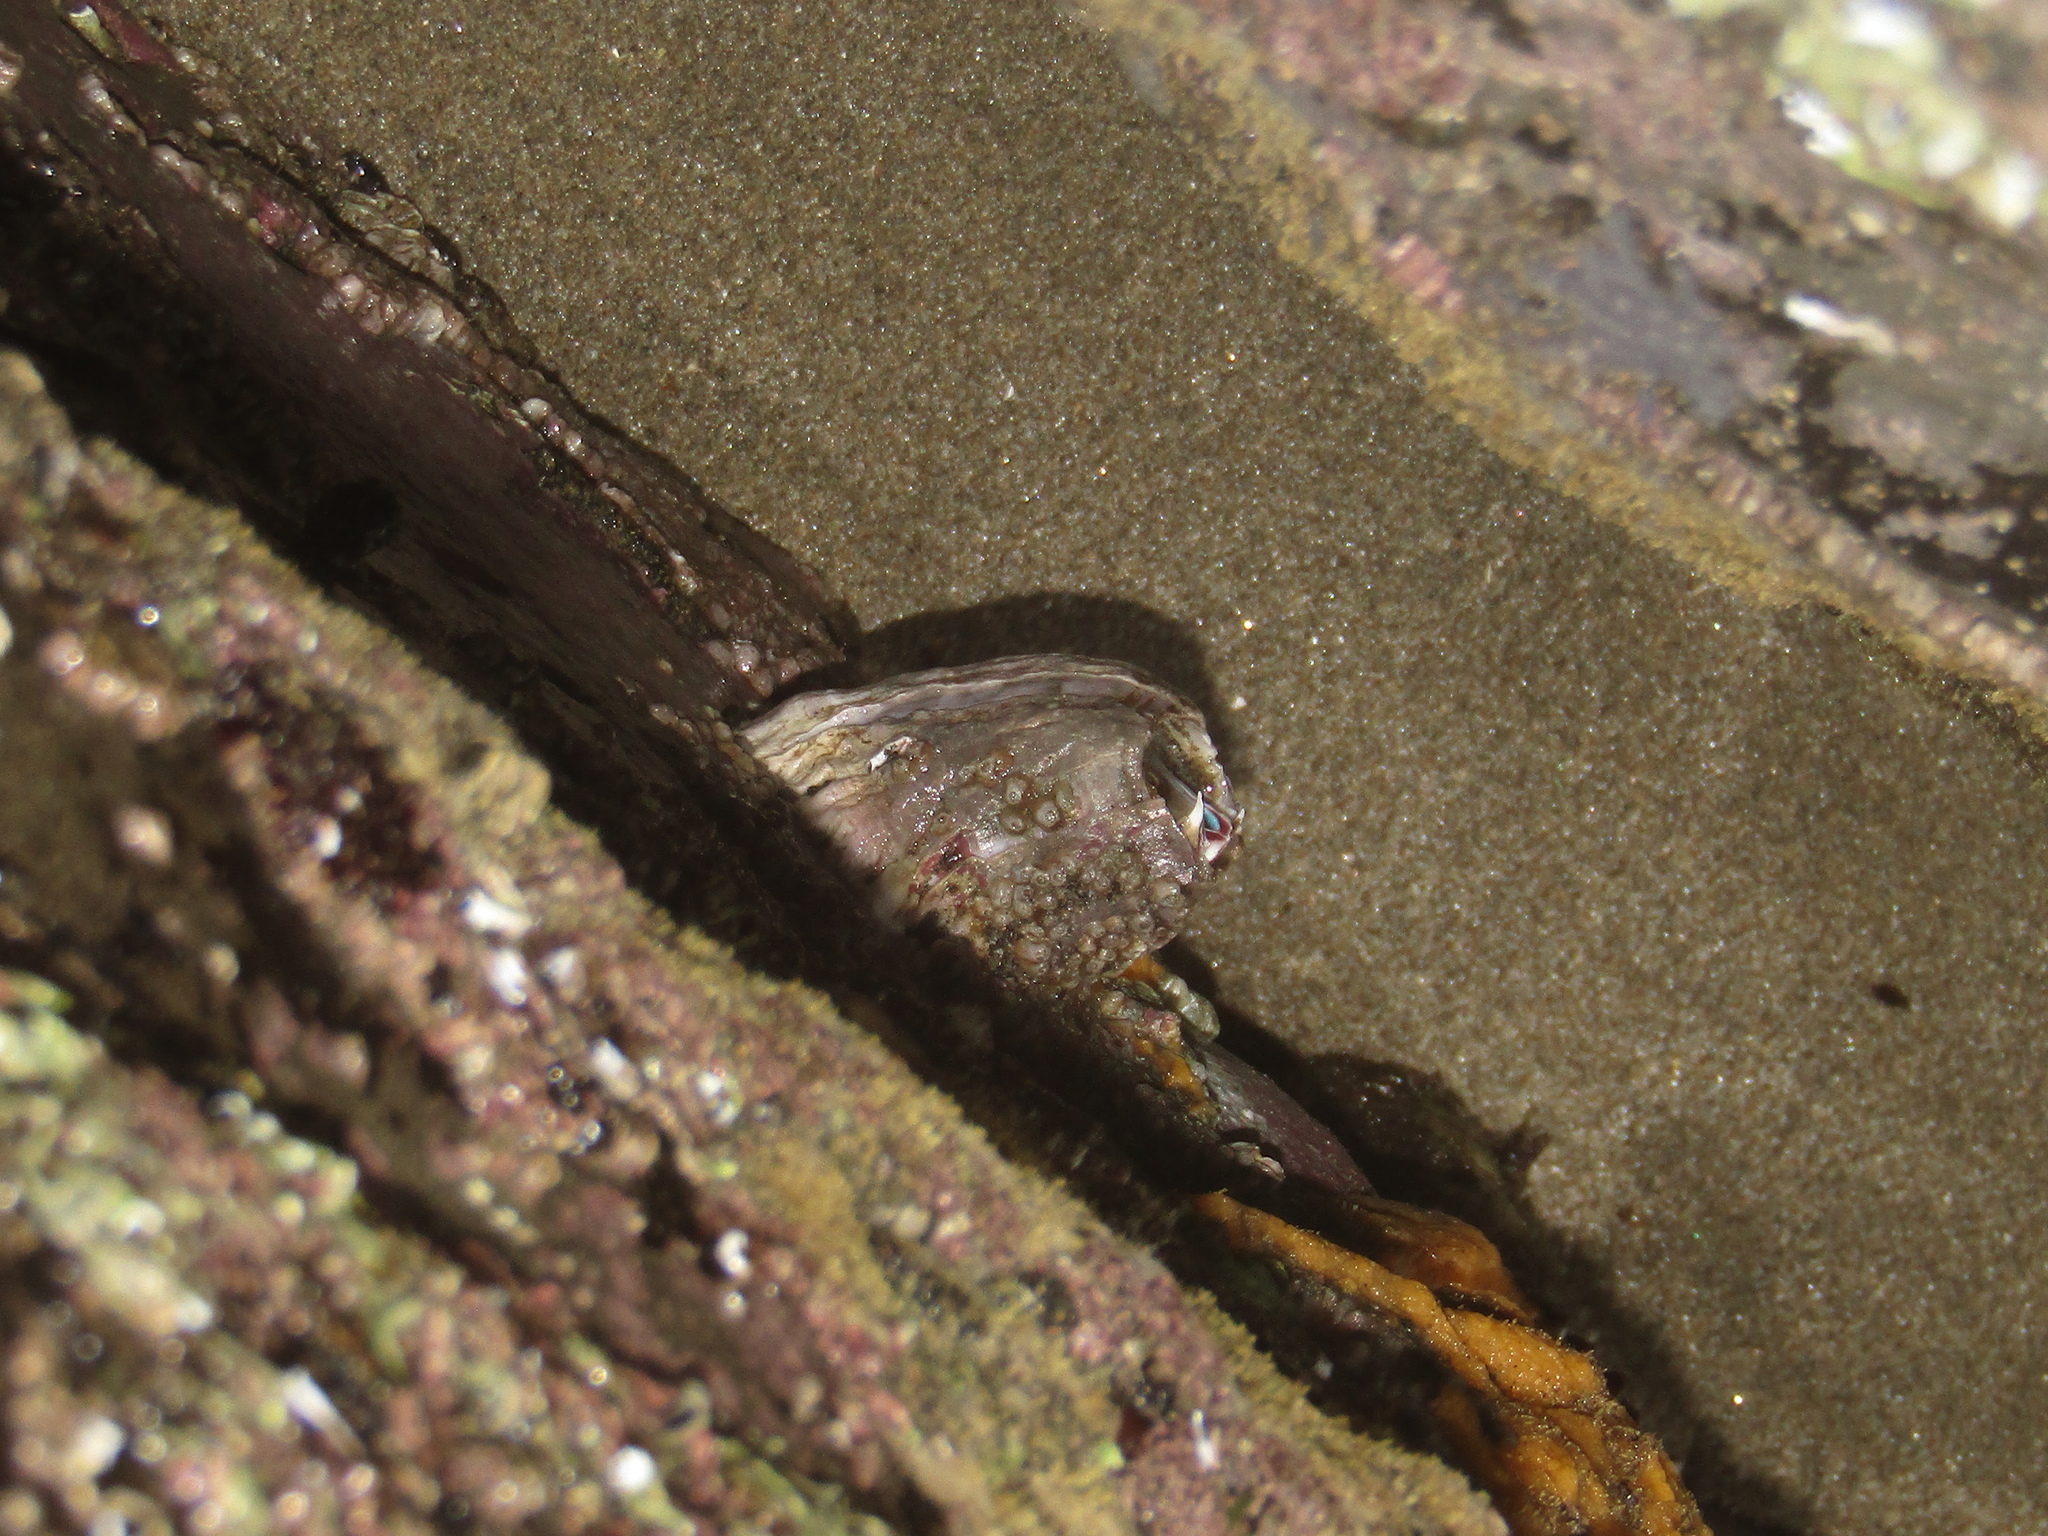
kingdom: Animalia
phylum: Arthropoda
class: Maxillopoda
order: Sessilia
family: Balanidae
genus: Austromegabalanus
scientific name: Austromegabalanus nigrescens
